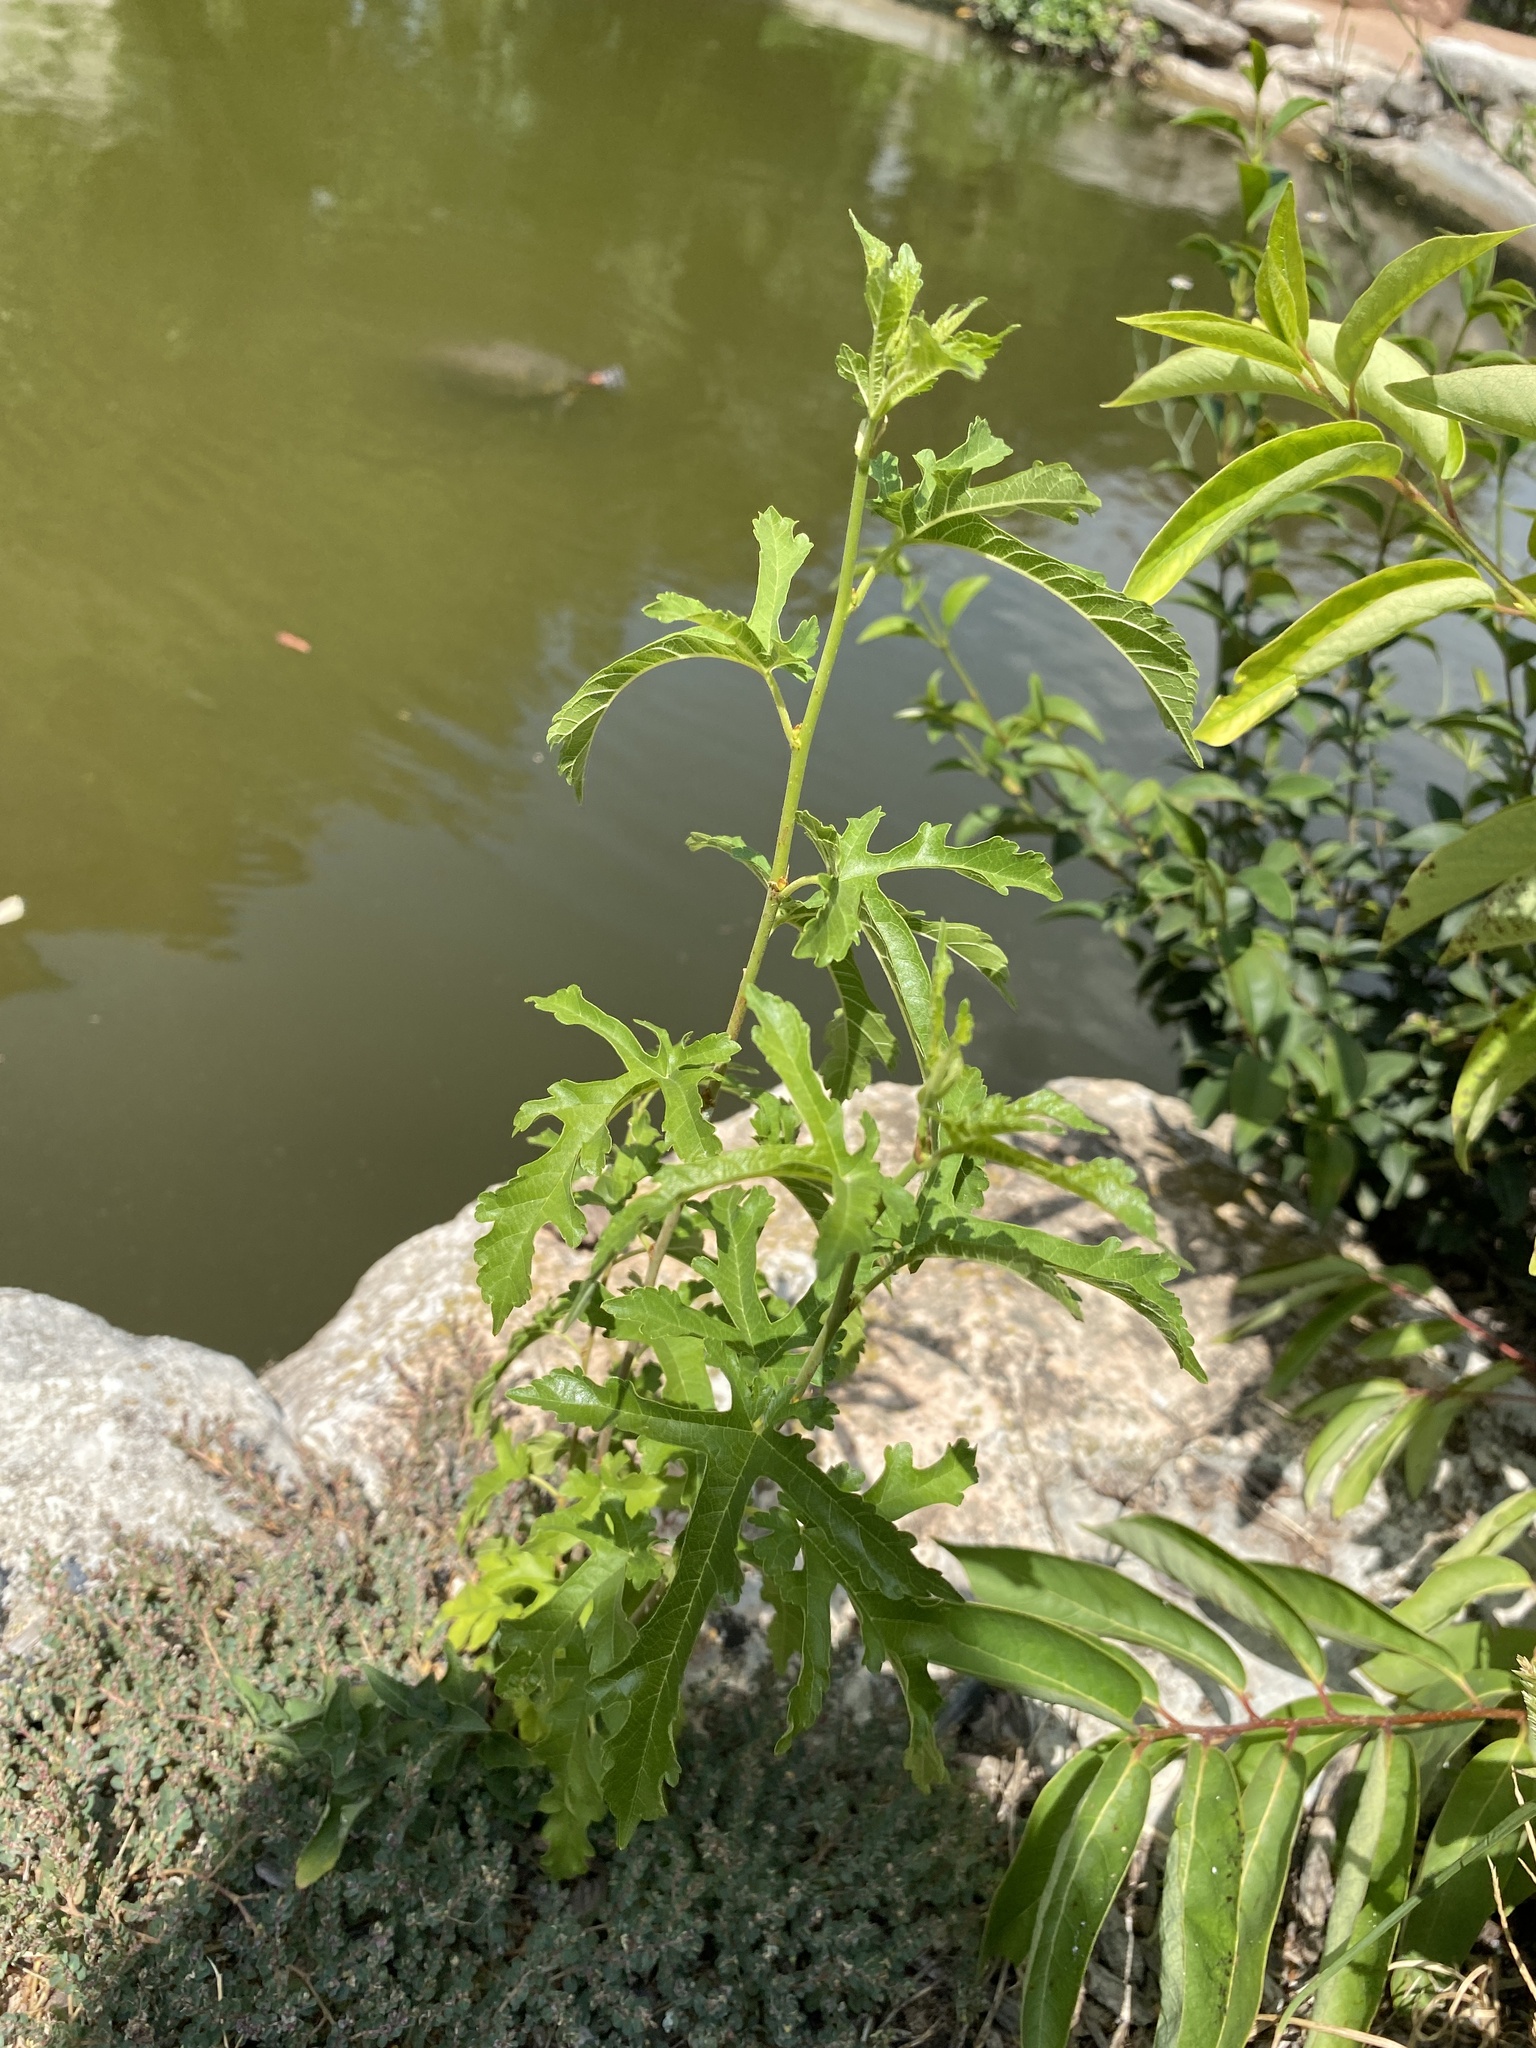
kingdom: Plantae
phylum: Tracheophyta
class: Magnoliopsida
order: Rosales
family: Moraceae
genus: Morus
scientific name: Morus indica
